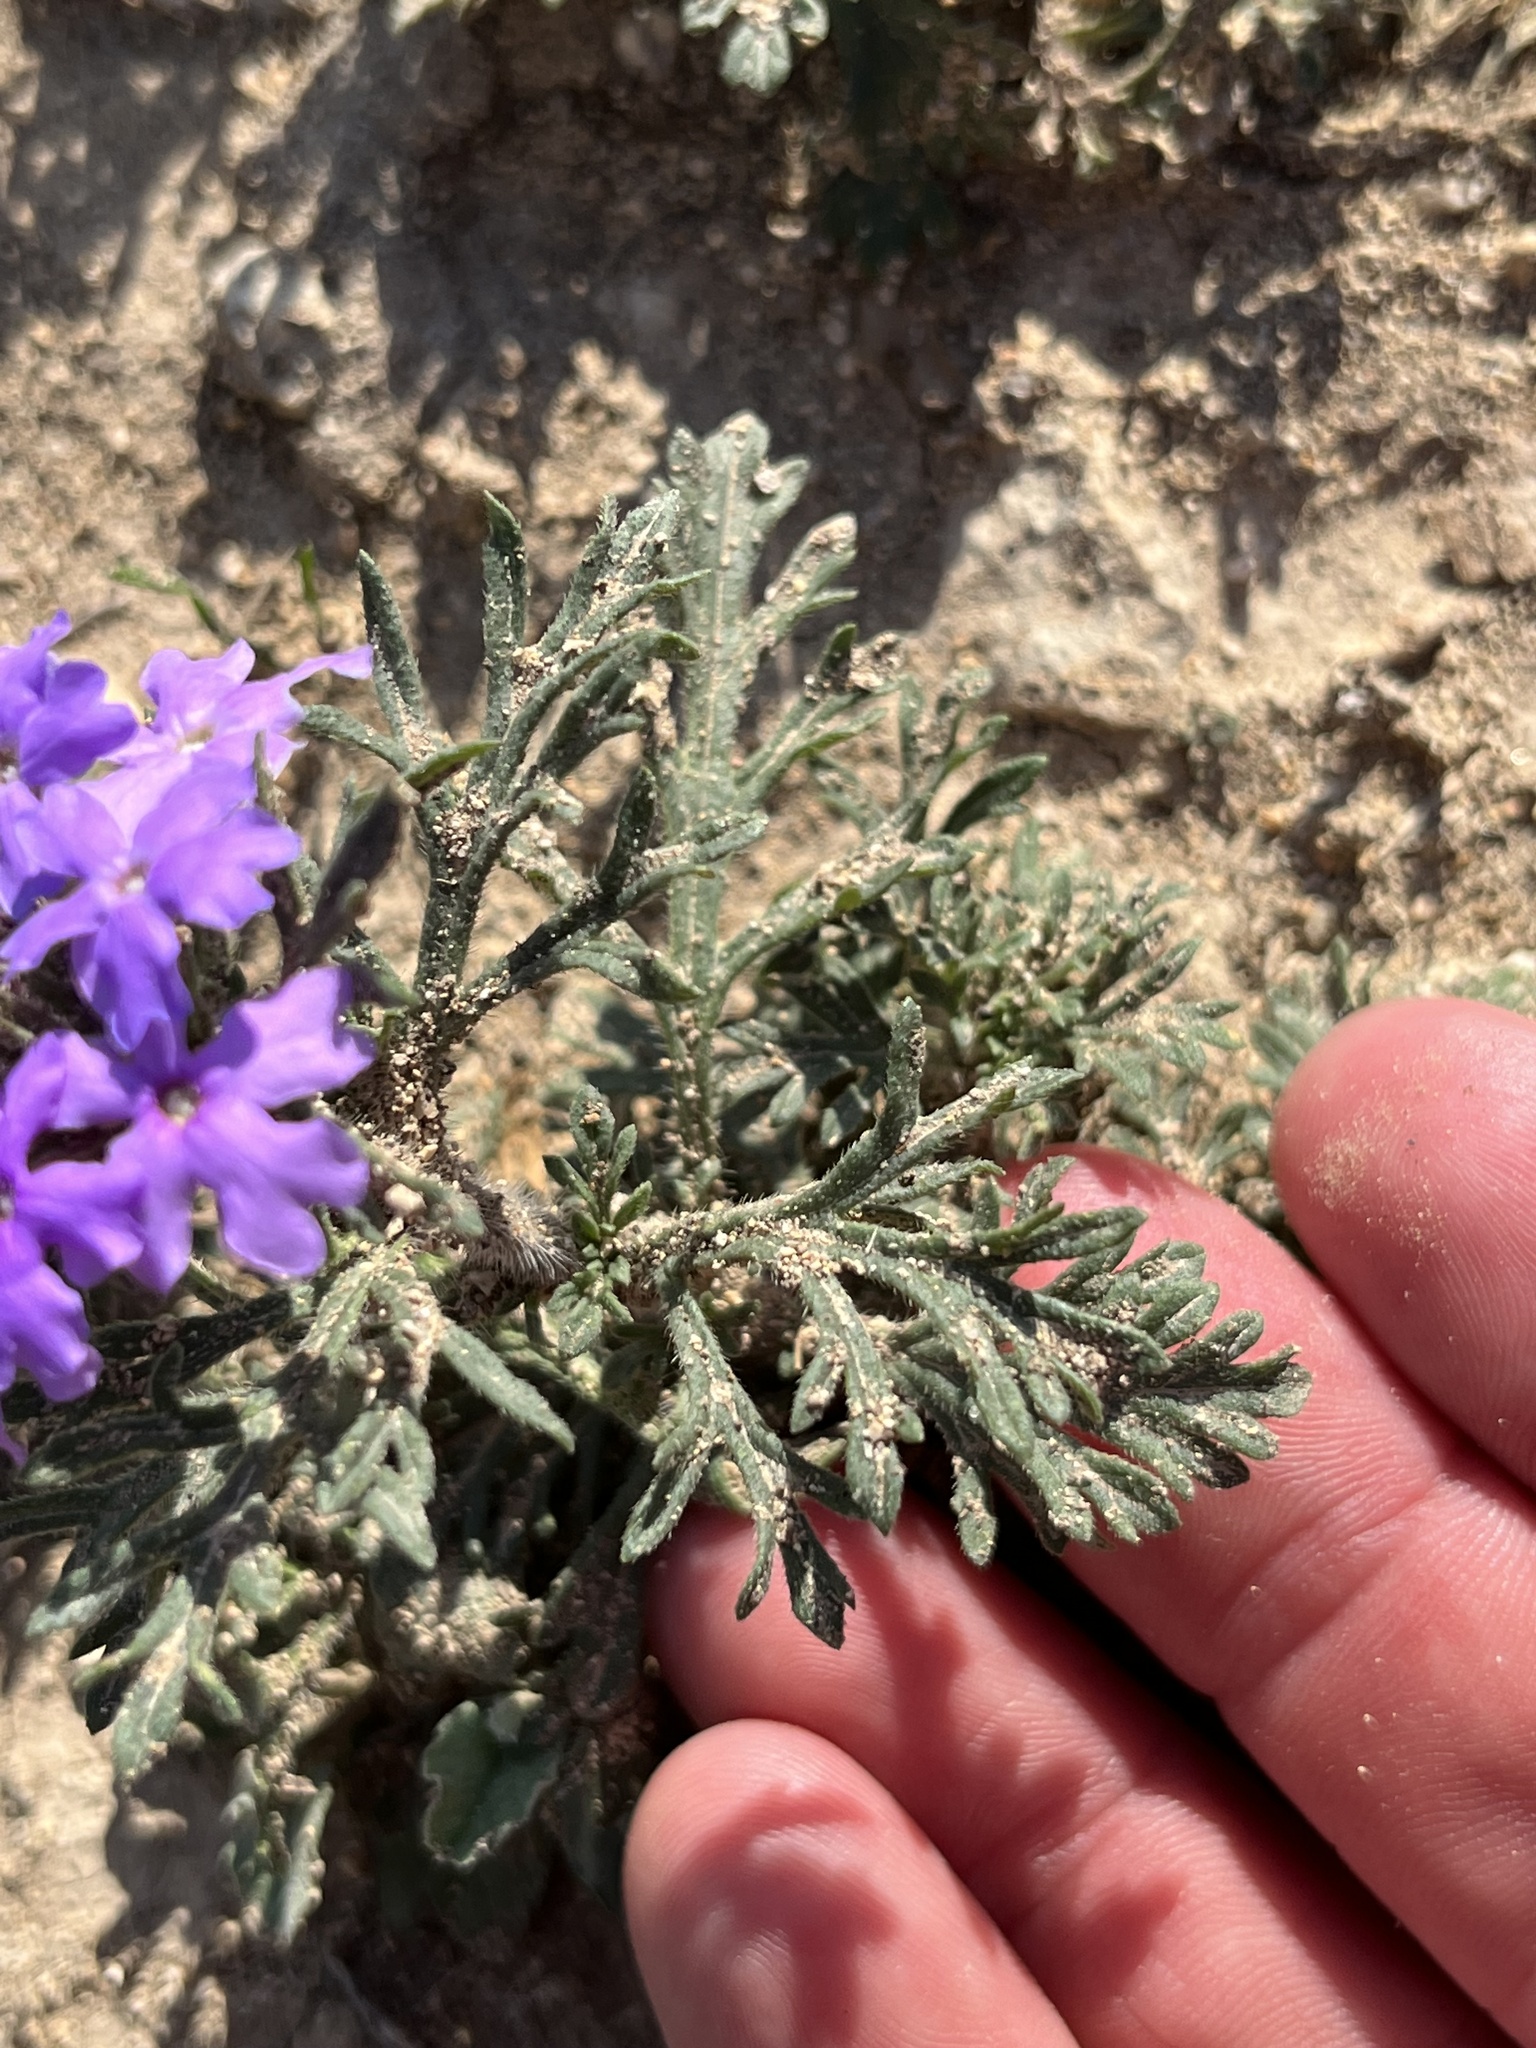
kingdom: Plantae
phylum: Tracheophyta
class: Magnoliopsida
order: Lamiales
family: Verbenaceae
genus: Verbena
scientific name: Verbena bipinnatifida
